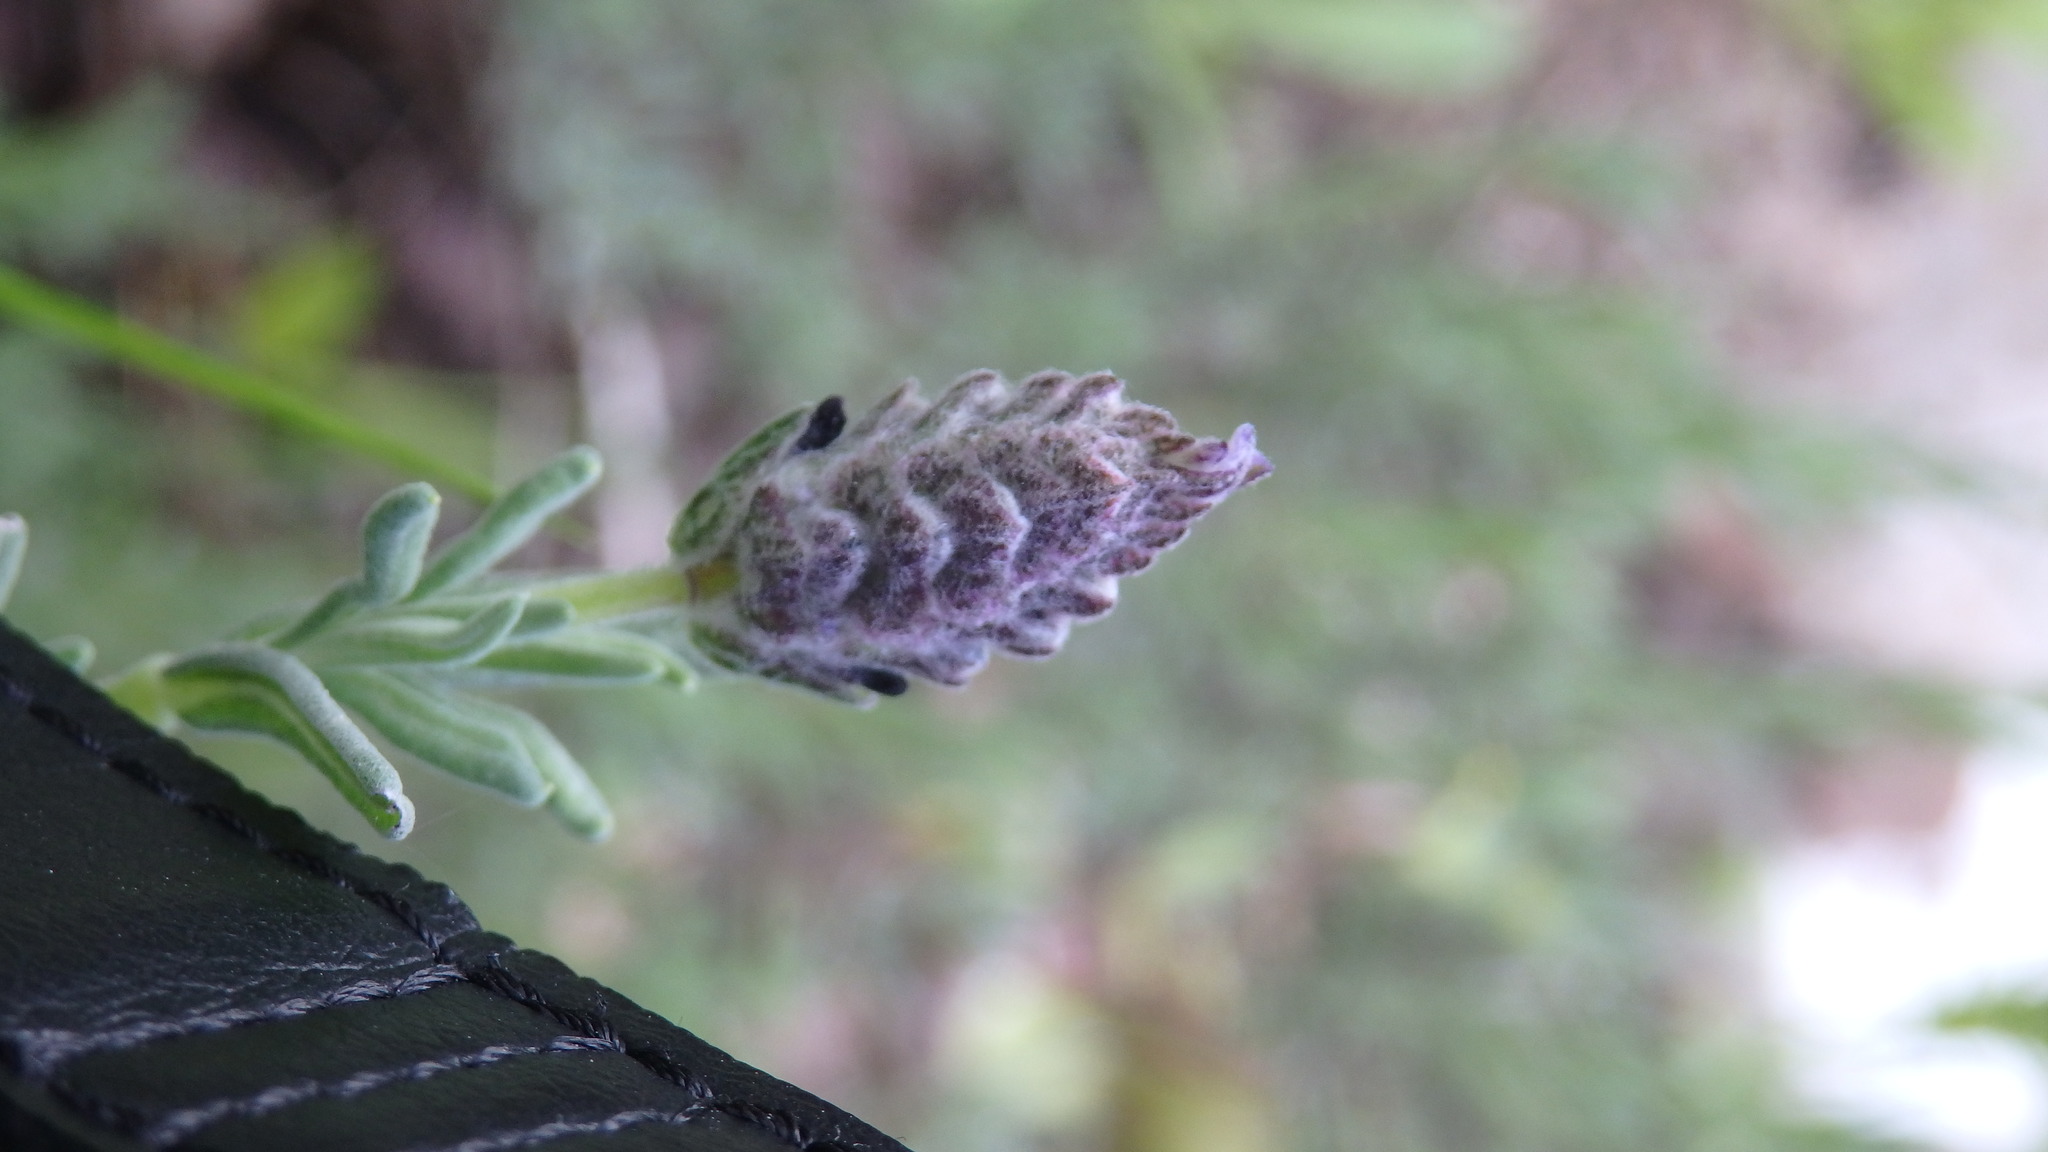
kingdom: Plantae
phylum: Tracheophyta
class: Magnoliopsida
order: Lamiales
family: Lamiaceae
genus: Lavandula
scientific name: Lavandula stoechas
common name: French lavender
